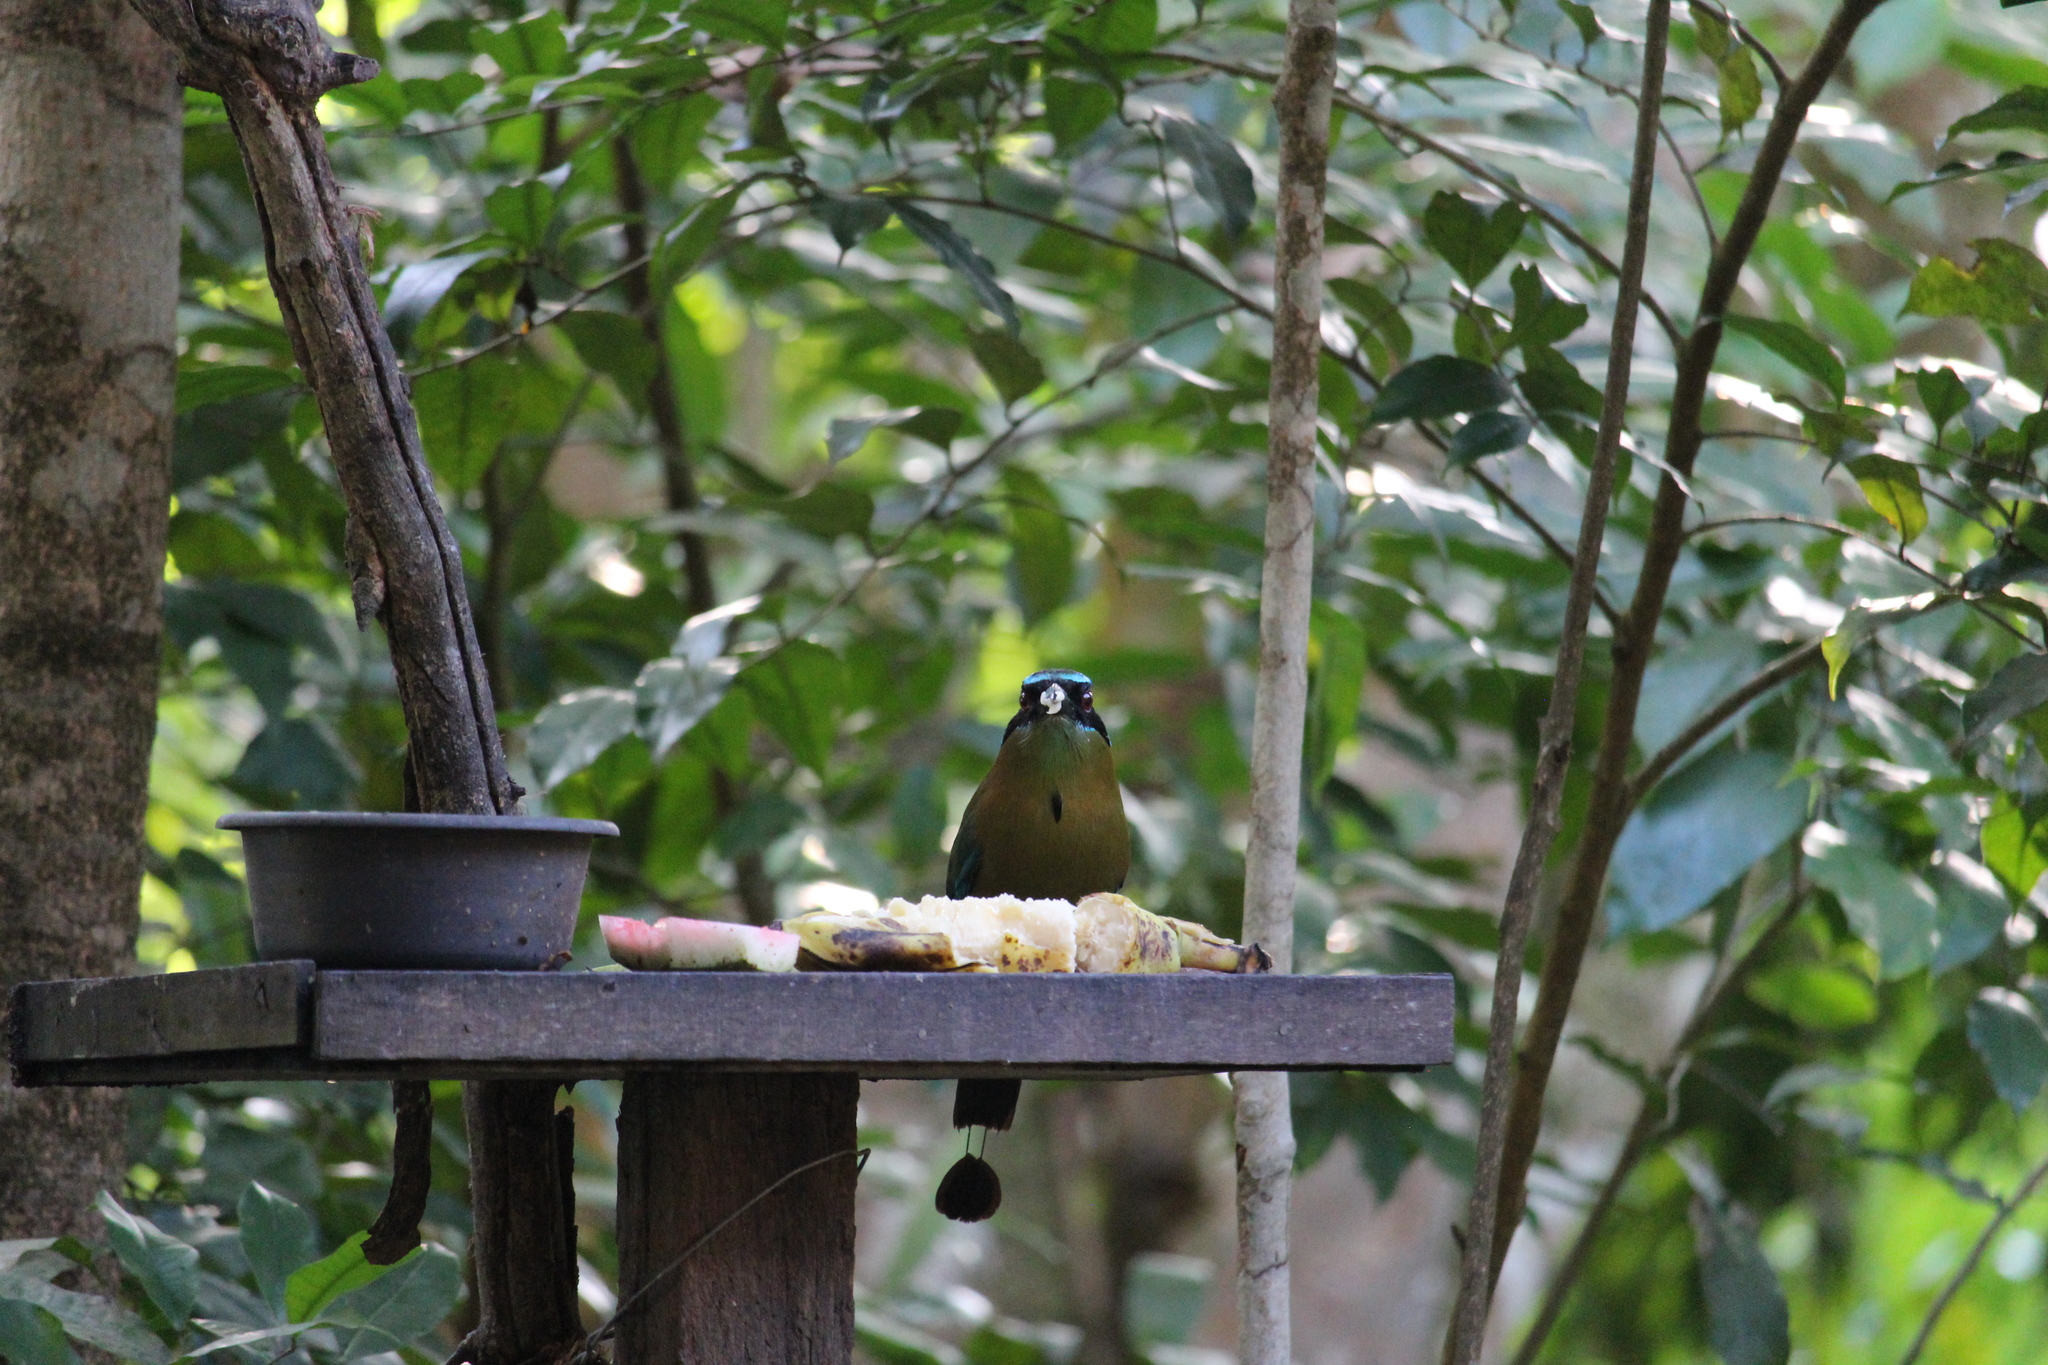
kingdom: Animalia
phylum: Chordata
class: Aves
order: Coraciiformes
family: Momotidae
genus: Momotus
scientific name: Momotus lessonii
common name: Lesson's motmot
